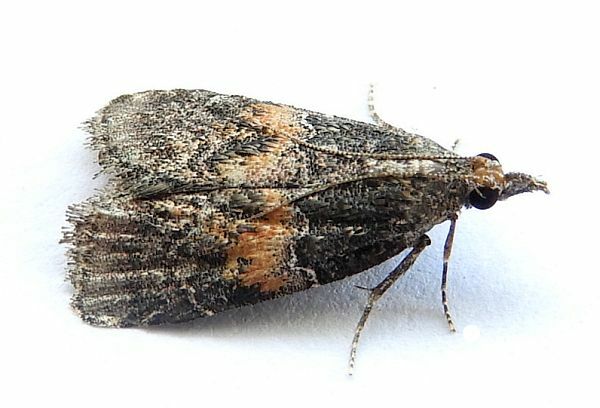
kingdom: Animalia
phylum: Arthropoda
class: Insecta
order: Lepidoptera
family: Pyralidae
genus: Satole
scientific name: Satole ligniperdalis
